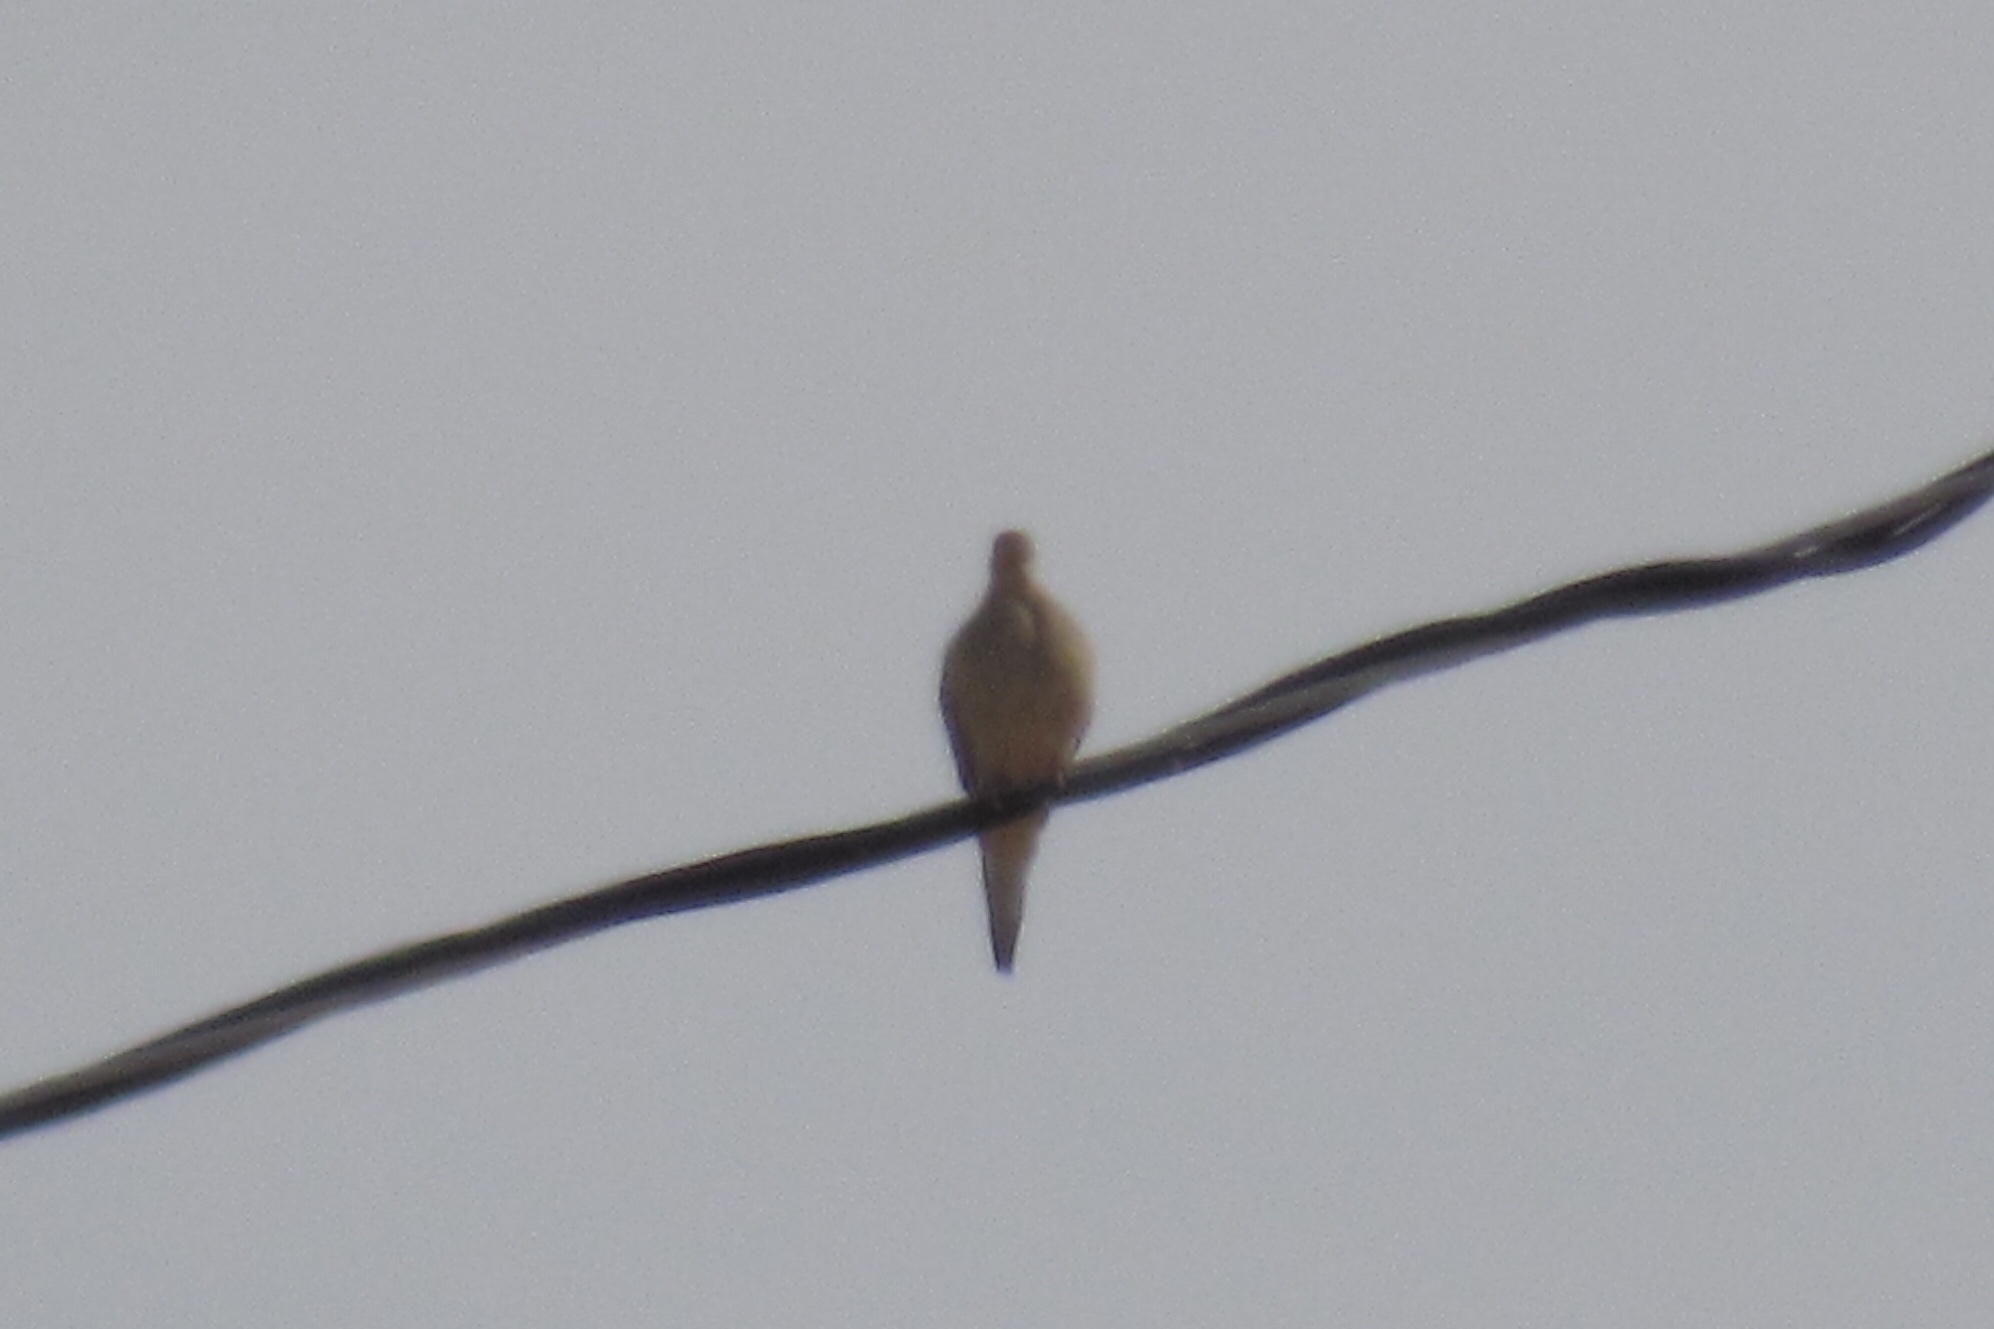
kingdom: Animalia
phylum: Chordata
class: Aves
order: Columbiformes
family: Columbidae
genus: Zenaida
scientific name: Zenaida macroura
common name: Mourning dove
